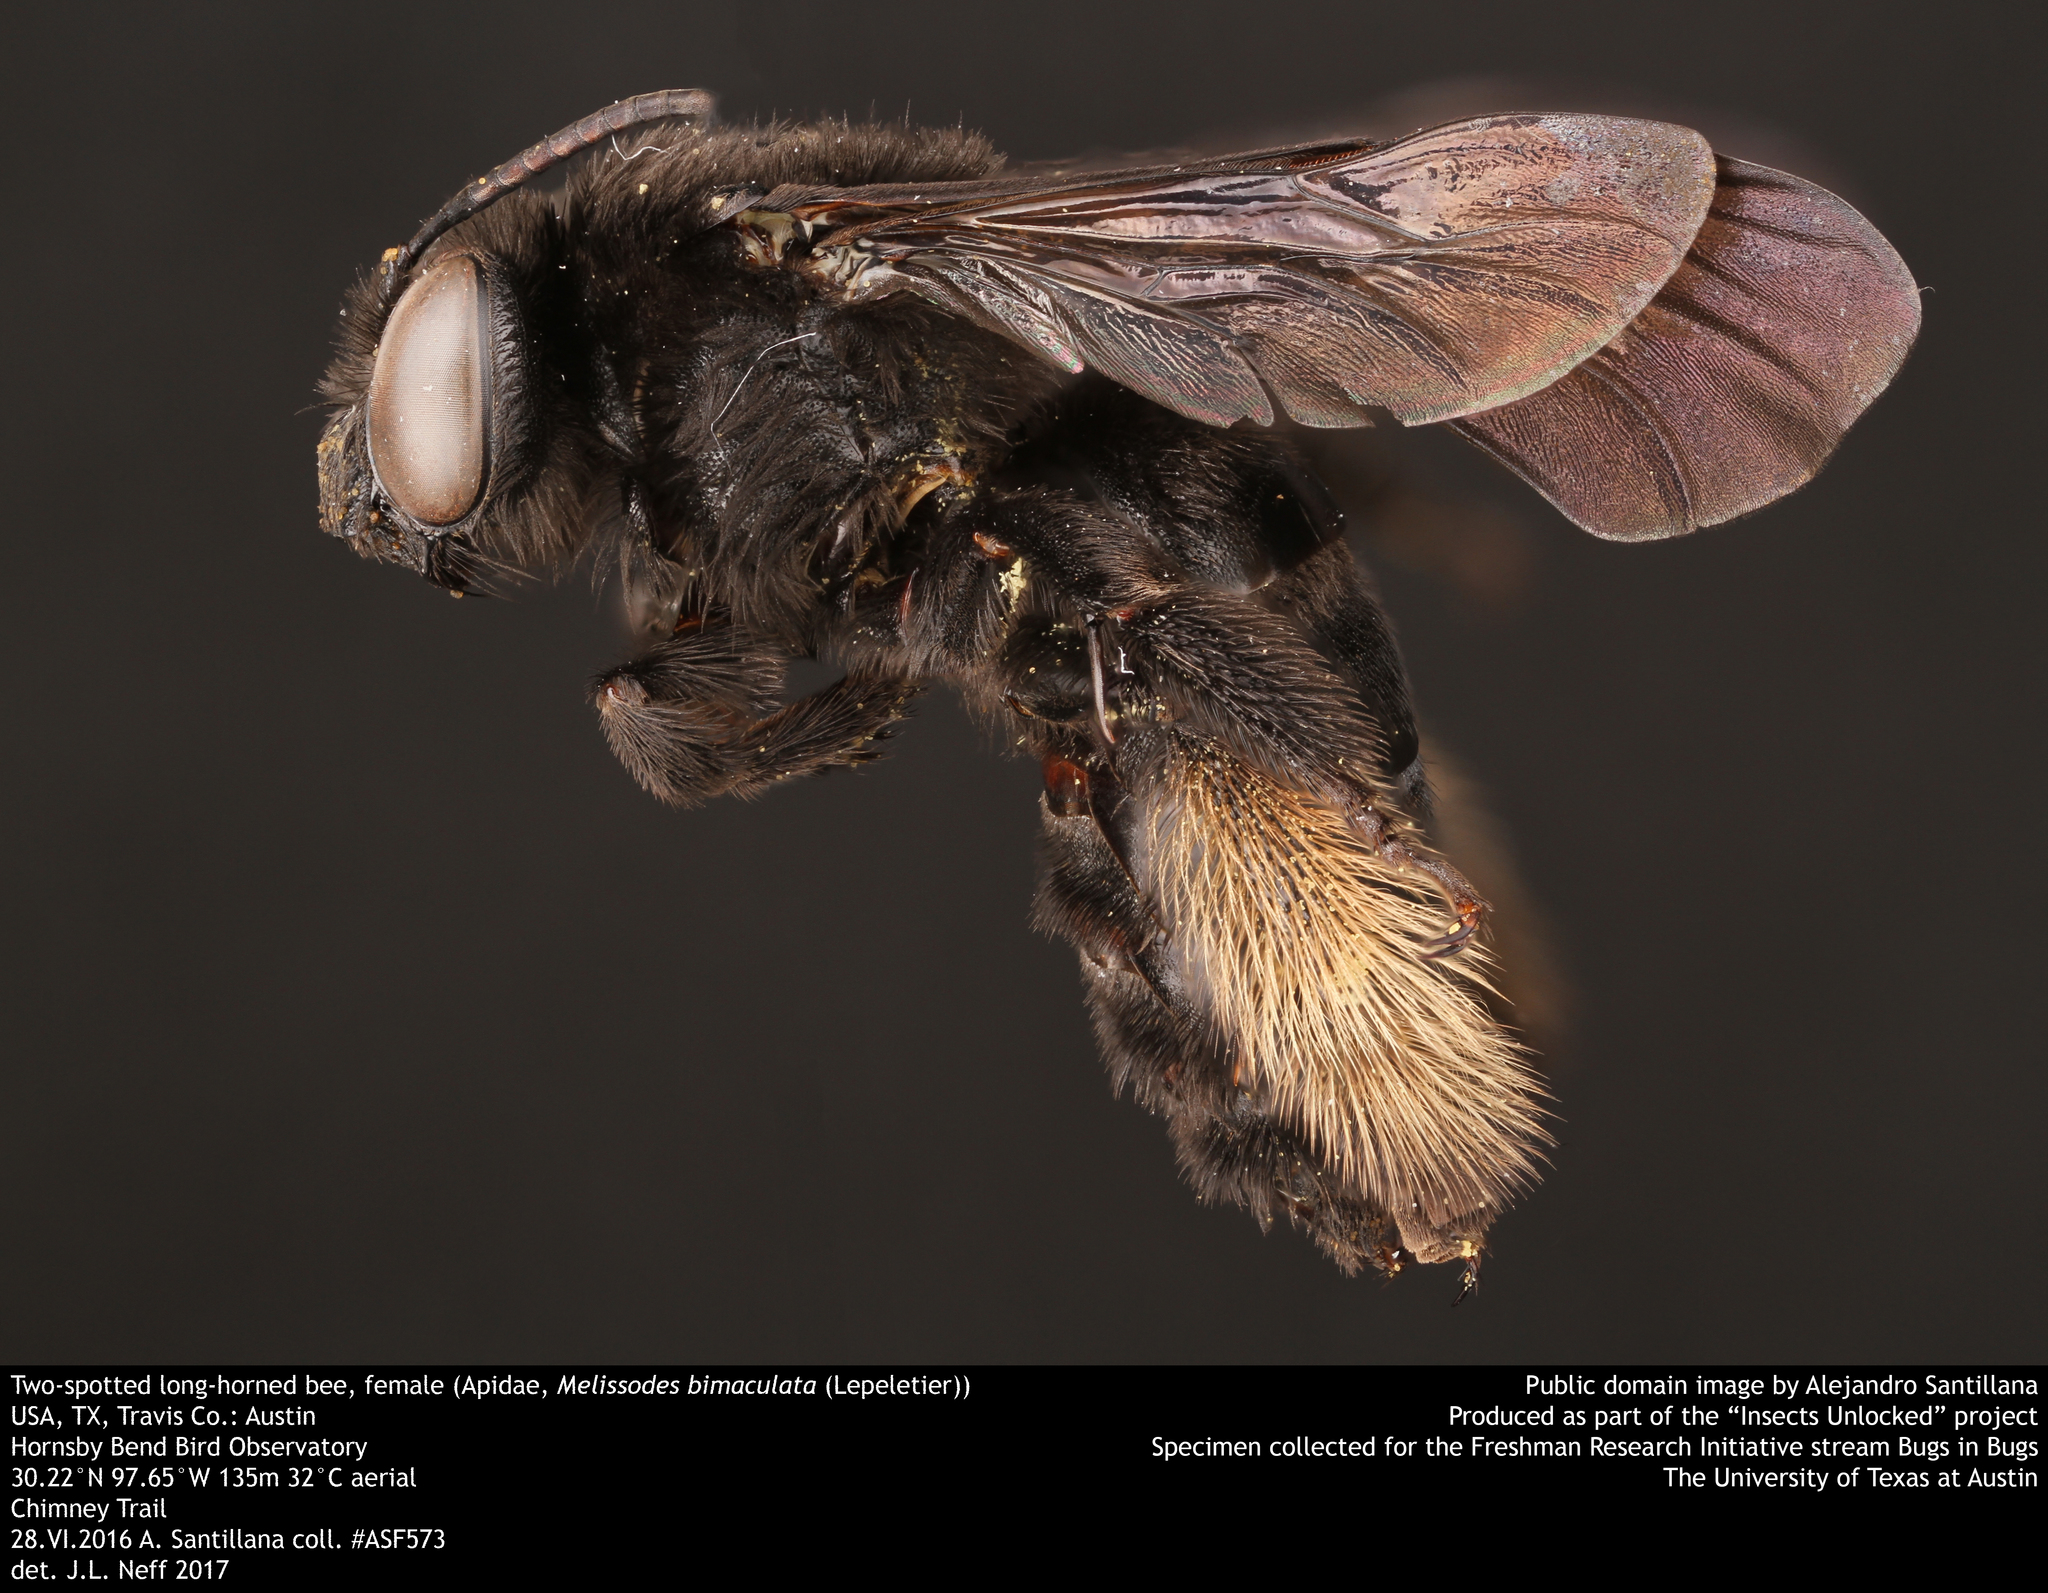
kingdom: Animalia
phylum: Arthropoda
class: Insecta
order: Hymenoptera
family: Apidae
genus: Melissodes
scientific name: Melissodes bimaculatus
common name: Two-spotted long-horned bee
